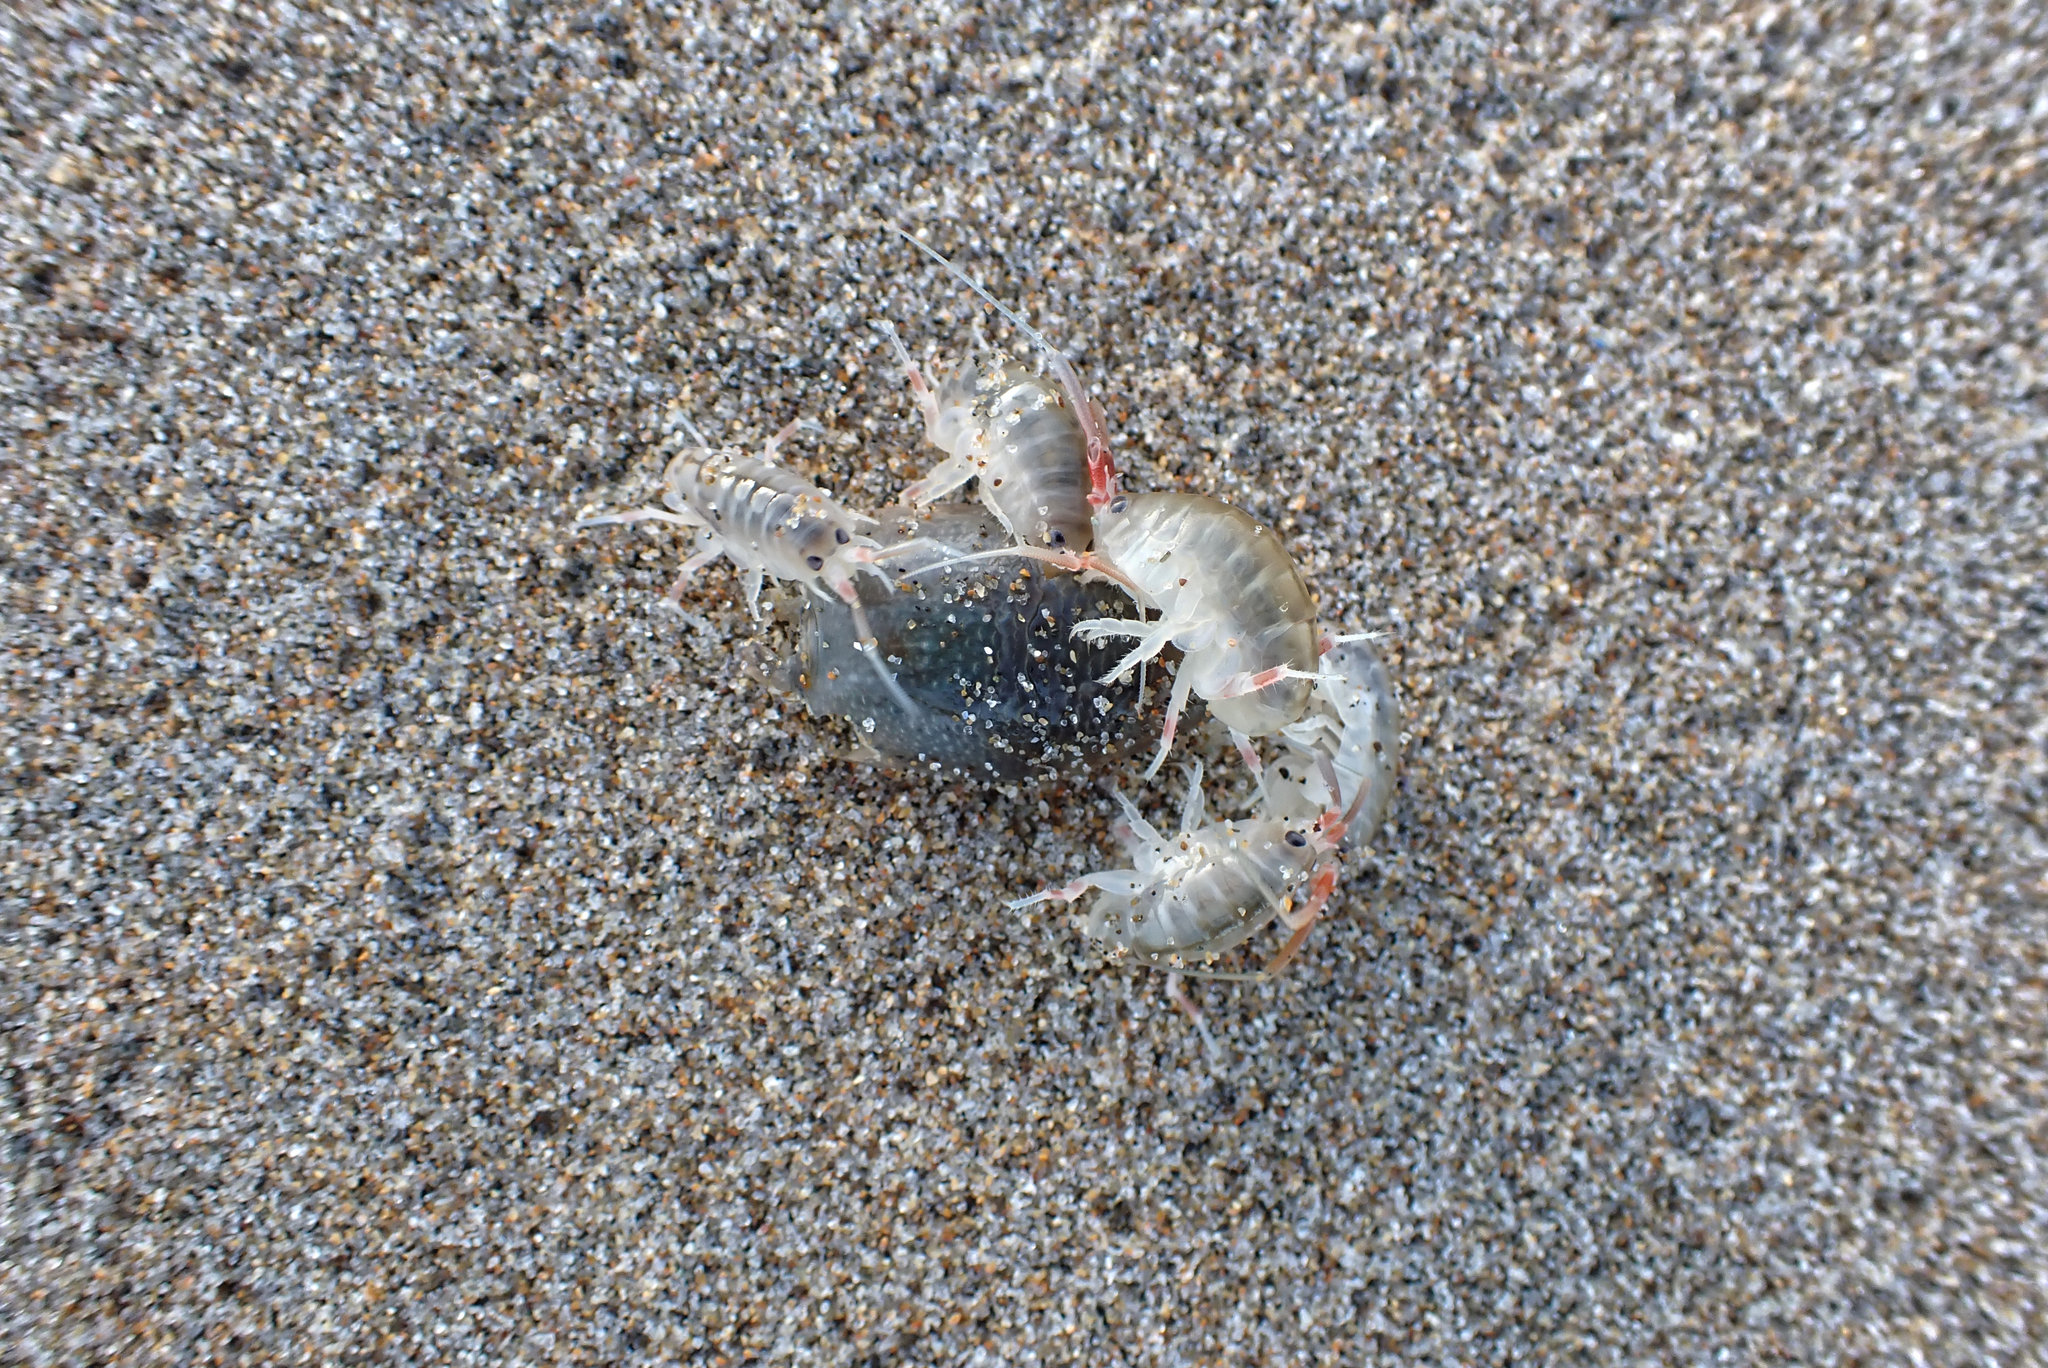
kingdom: Animalia
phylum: Arthropoda
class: Malacostraca
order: Amphipoda
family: Talitridae
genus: Megalorchestia
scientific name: Megalorchestia californiana
